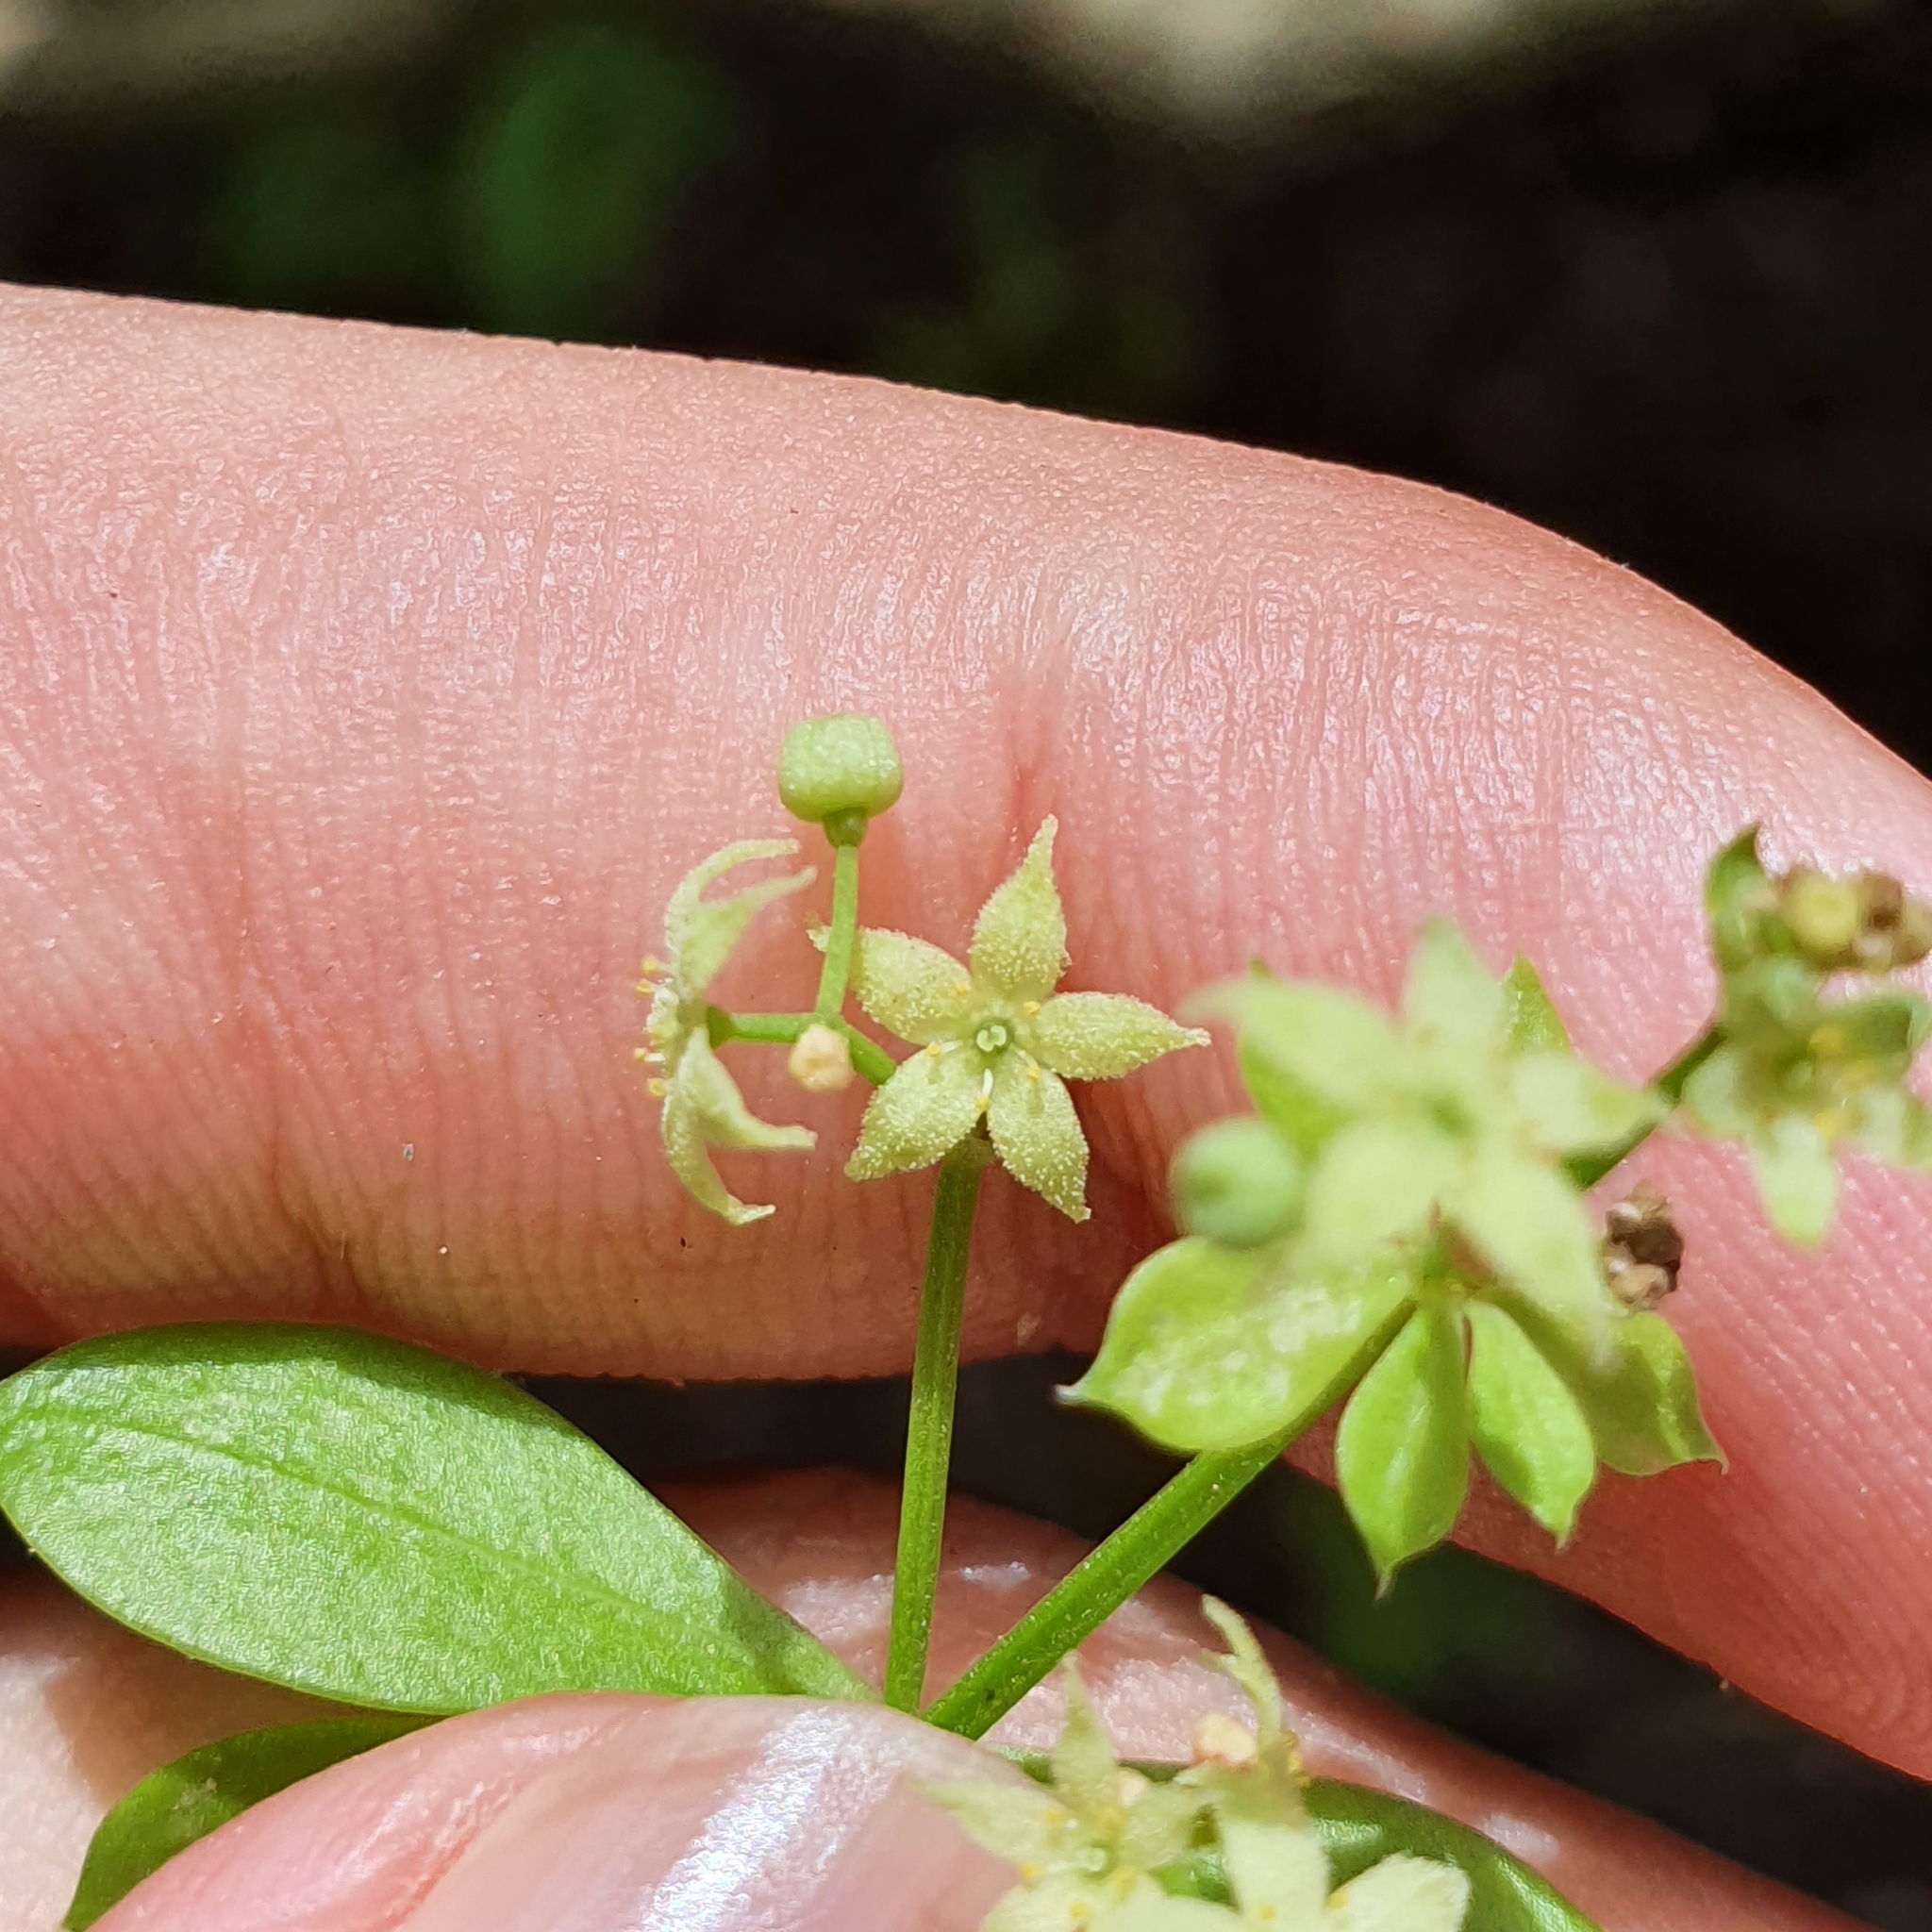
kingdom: Plantae
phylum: Tracheophyta
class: Magnoliopsida
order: Gentianales
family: Rubiaceae
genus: Rubia
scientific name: Rubia peregrina
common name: Wild madder
